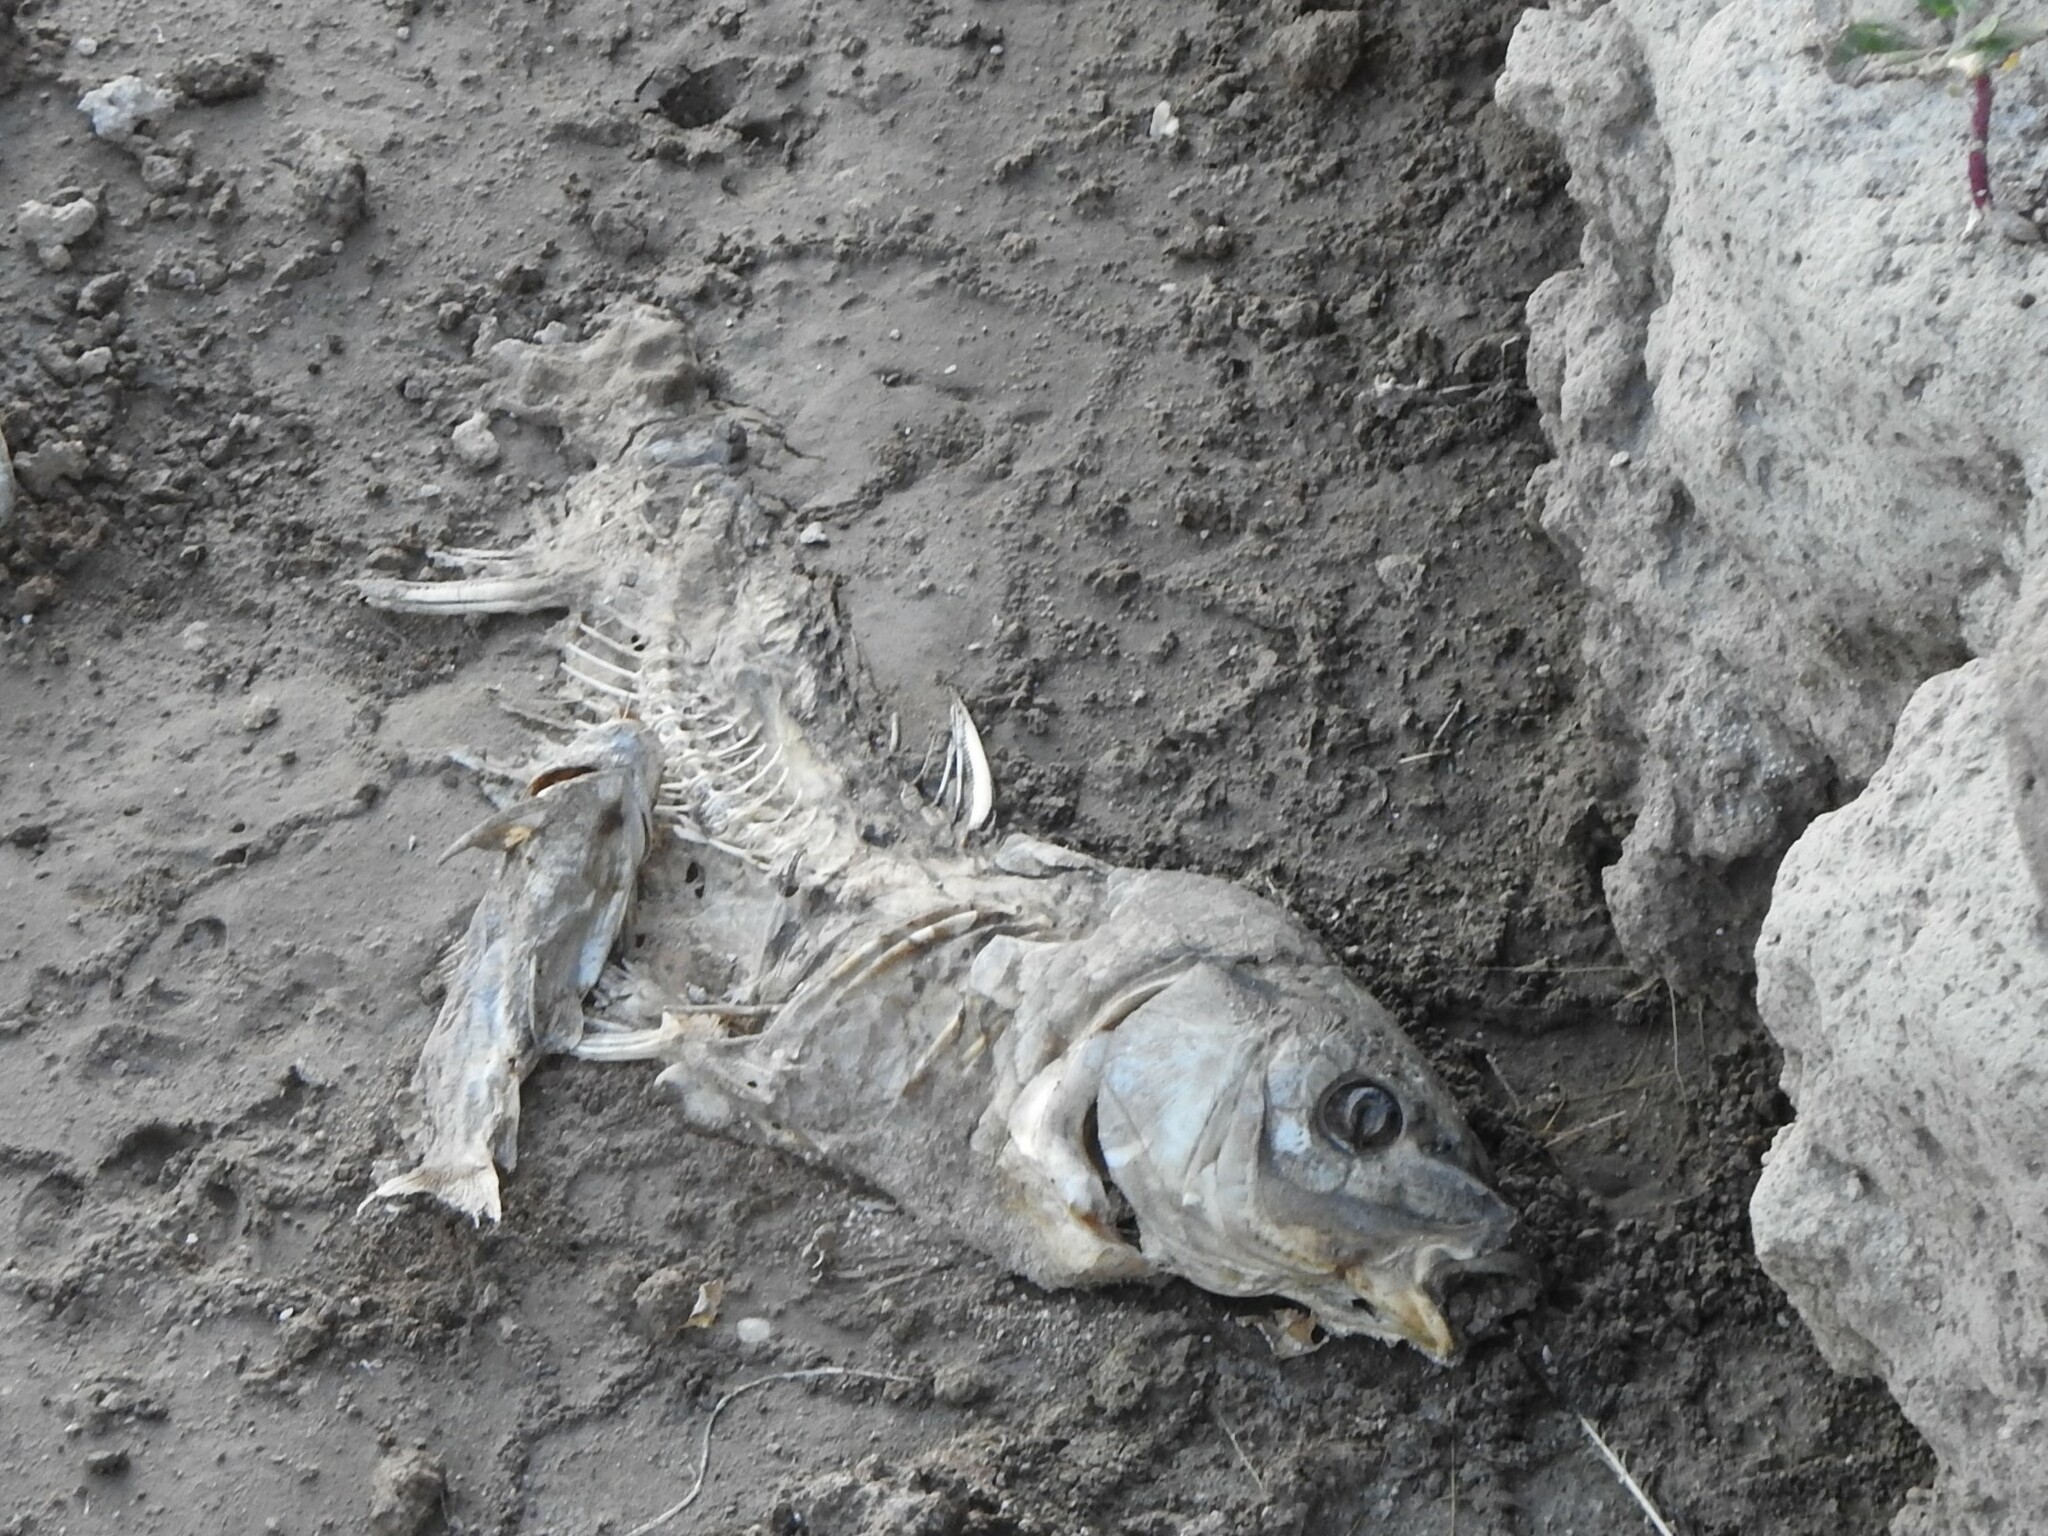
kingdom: Animalia
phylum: Chordata
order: Cypriniformes
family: Cyprinidae
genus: Cyprinus
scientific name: Cyprinus carpio
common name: Common carp
